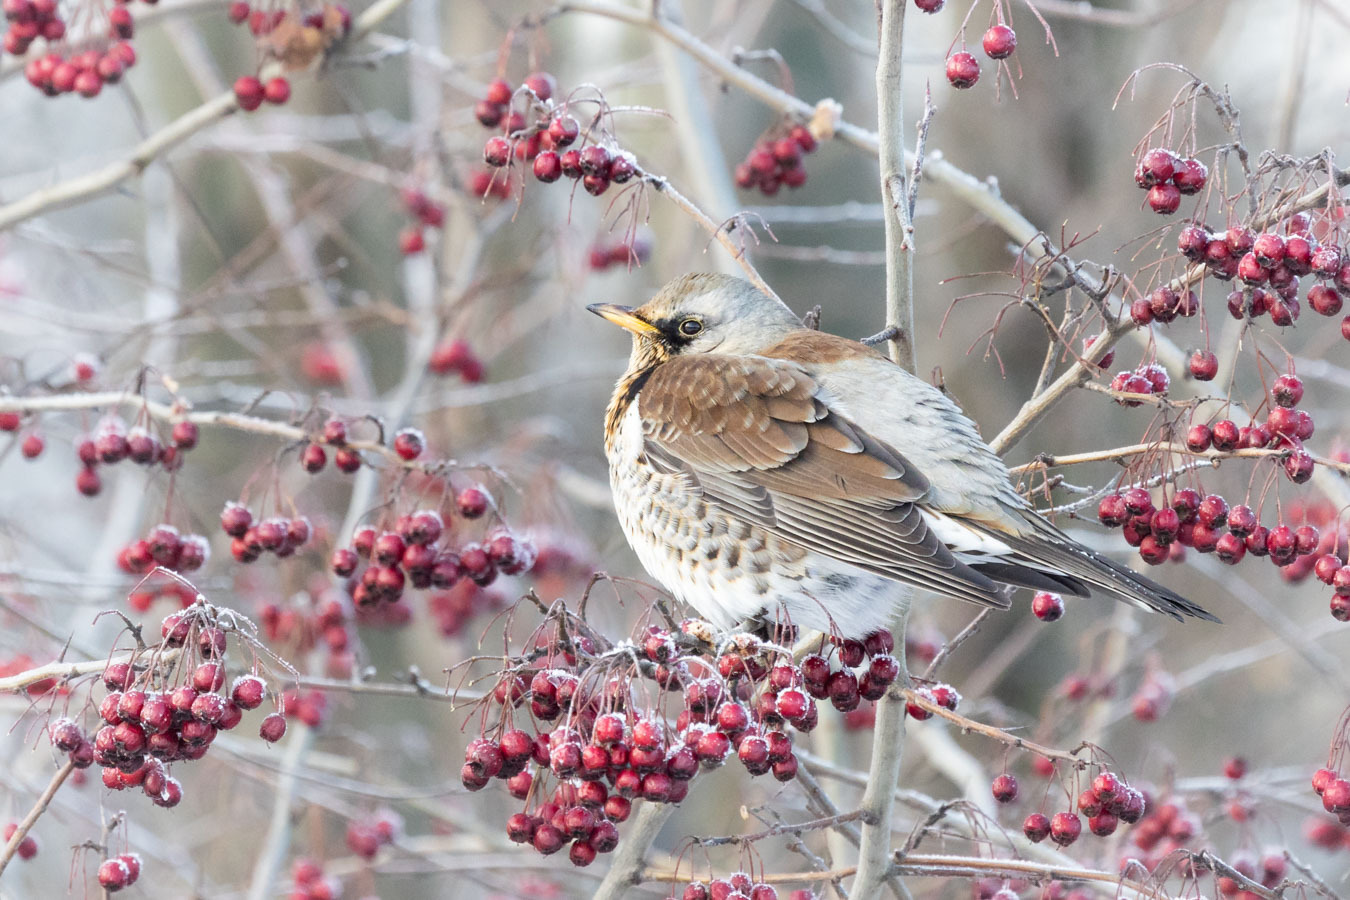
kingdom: Animalia
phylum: Chordata
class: Aves
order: Passeriformes
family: Turdidae
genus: Turdus
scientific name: Turdus pilaris
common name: Fieldfare
